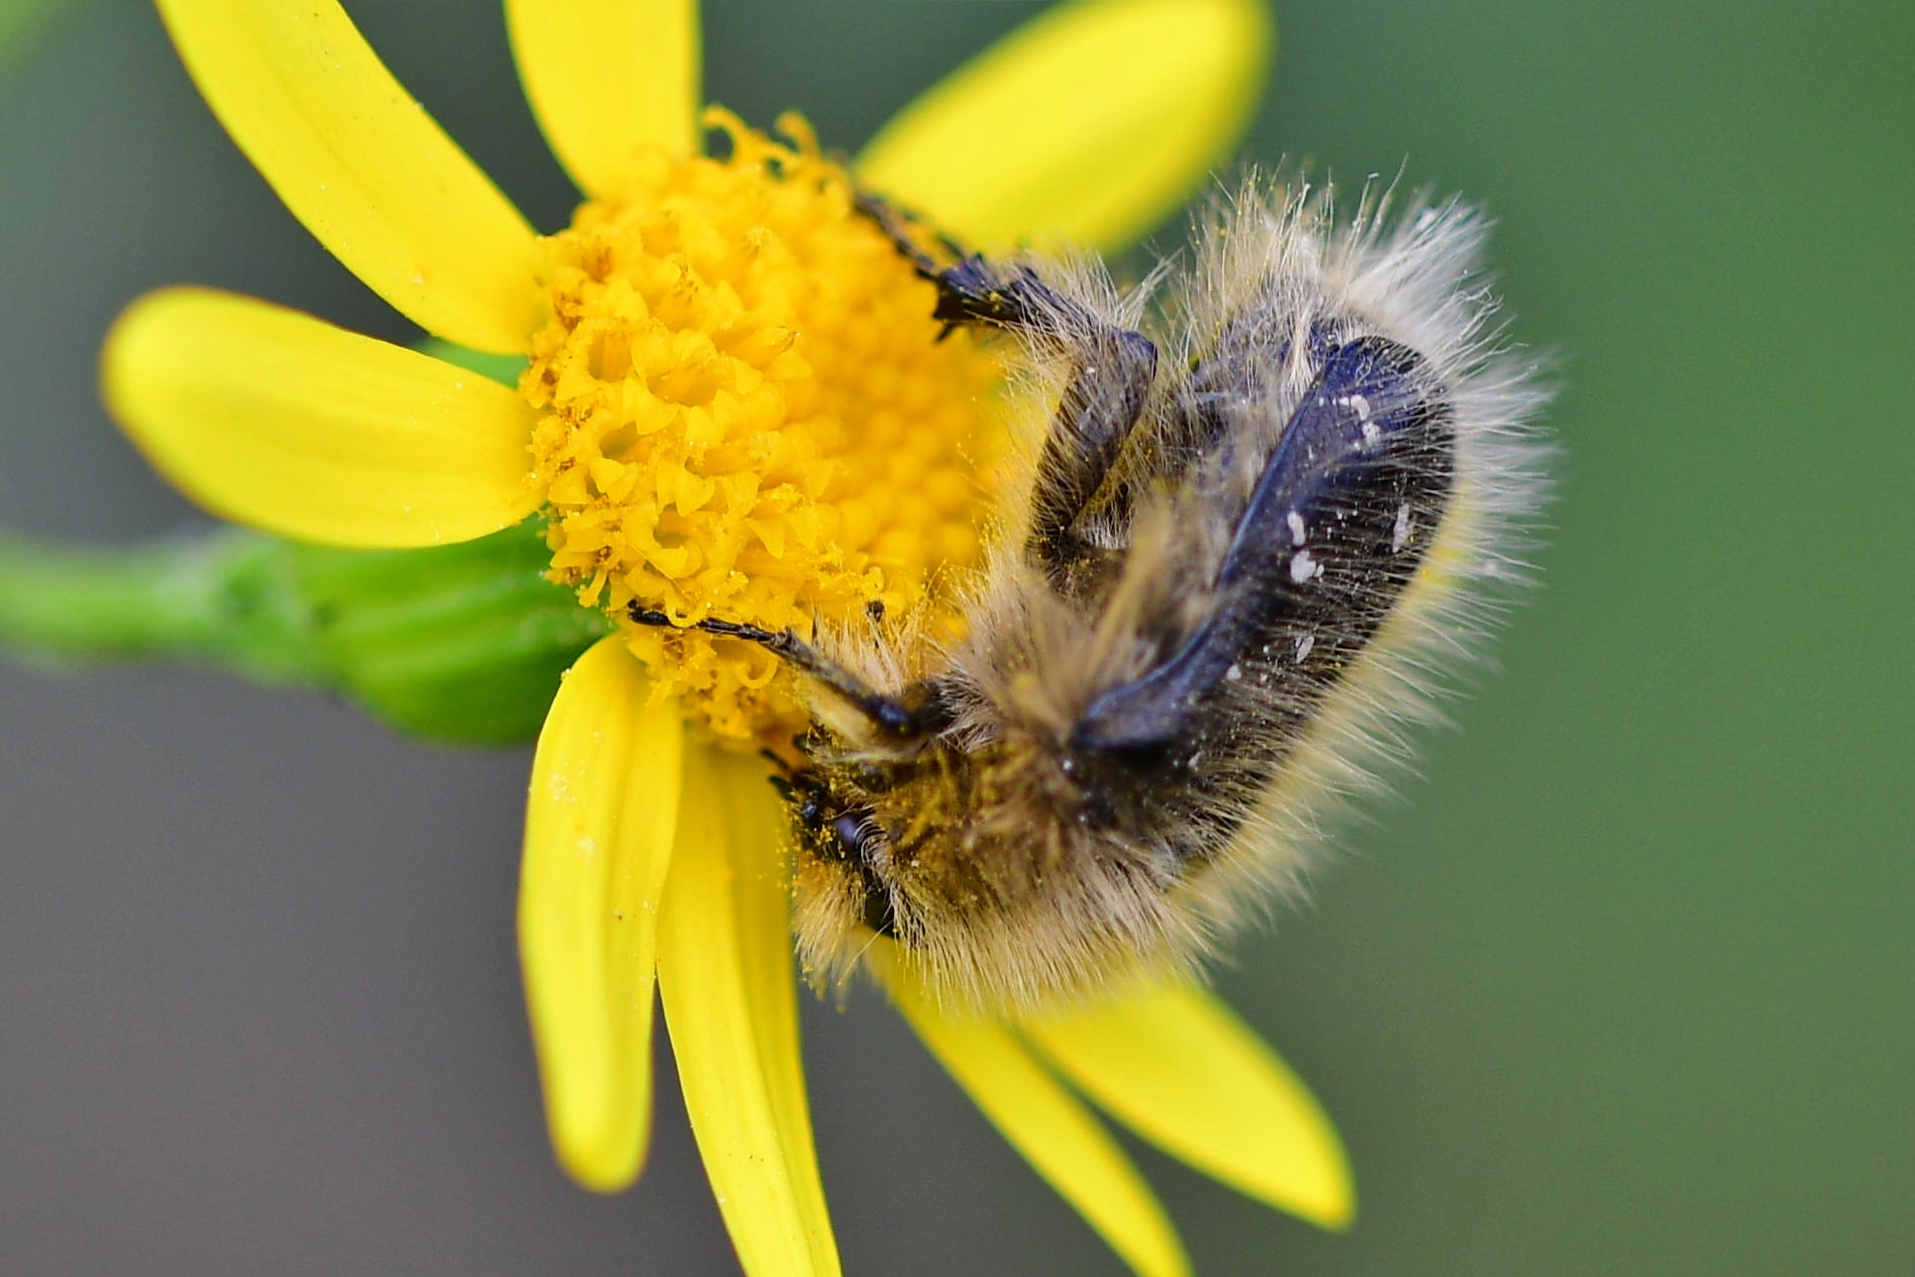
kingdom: Animalia
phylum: Arthropoda
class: Insecta
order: Coleoptera
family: Scarabaeidae
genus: Tropinota
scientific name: Tropinota hirta
